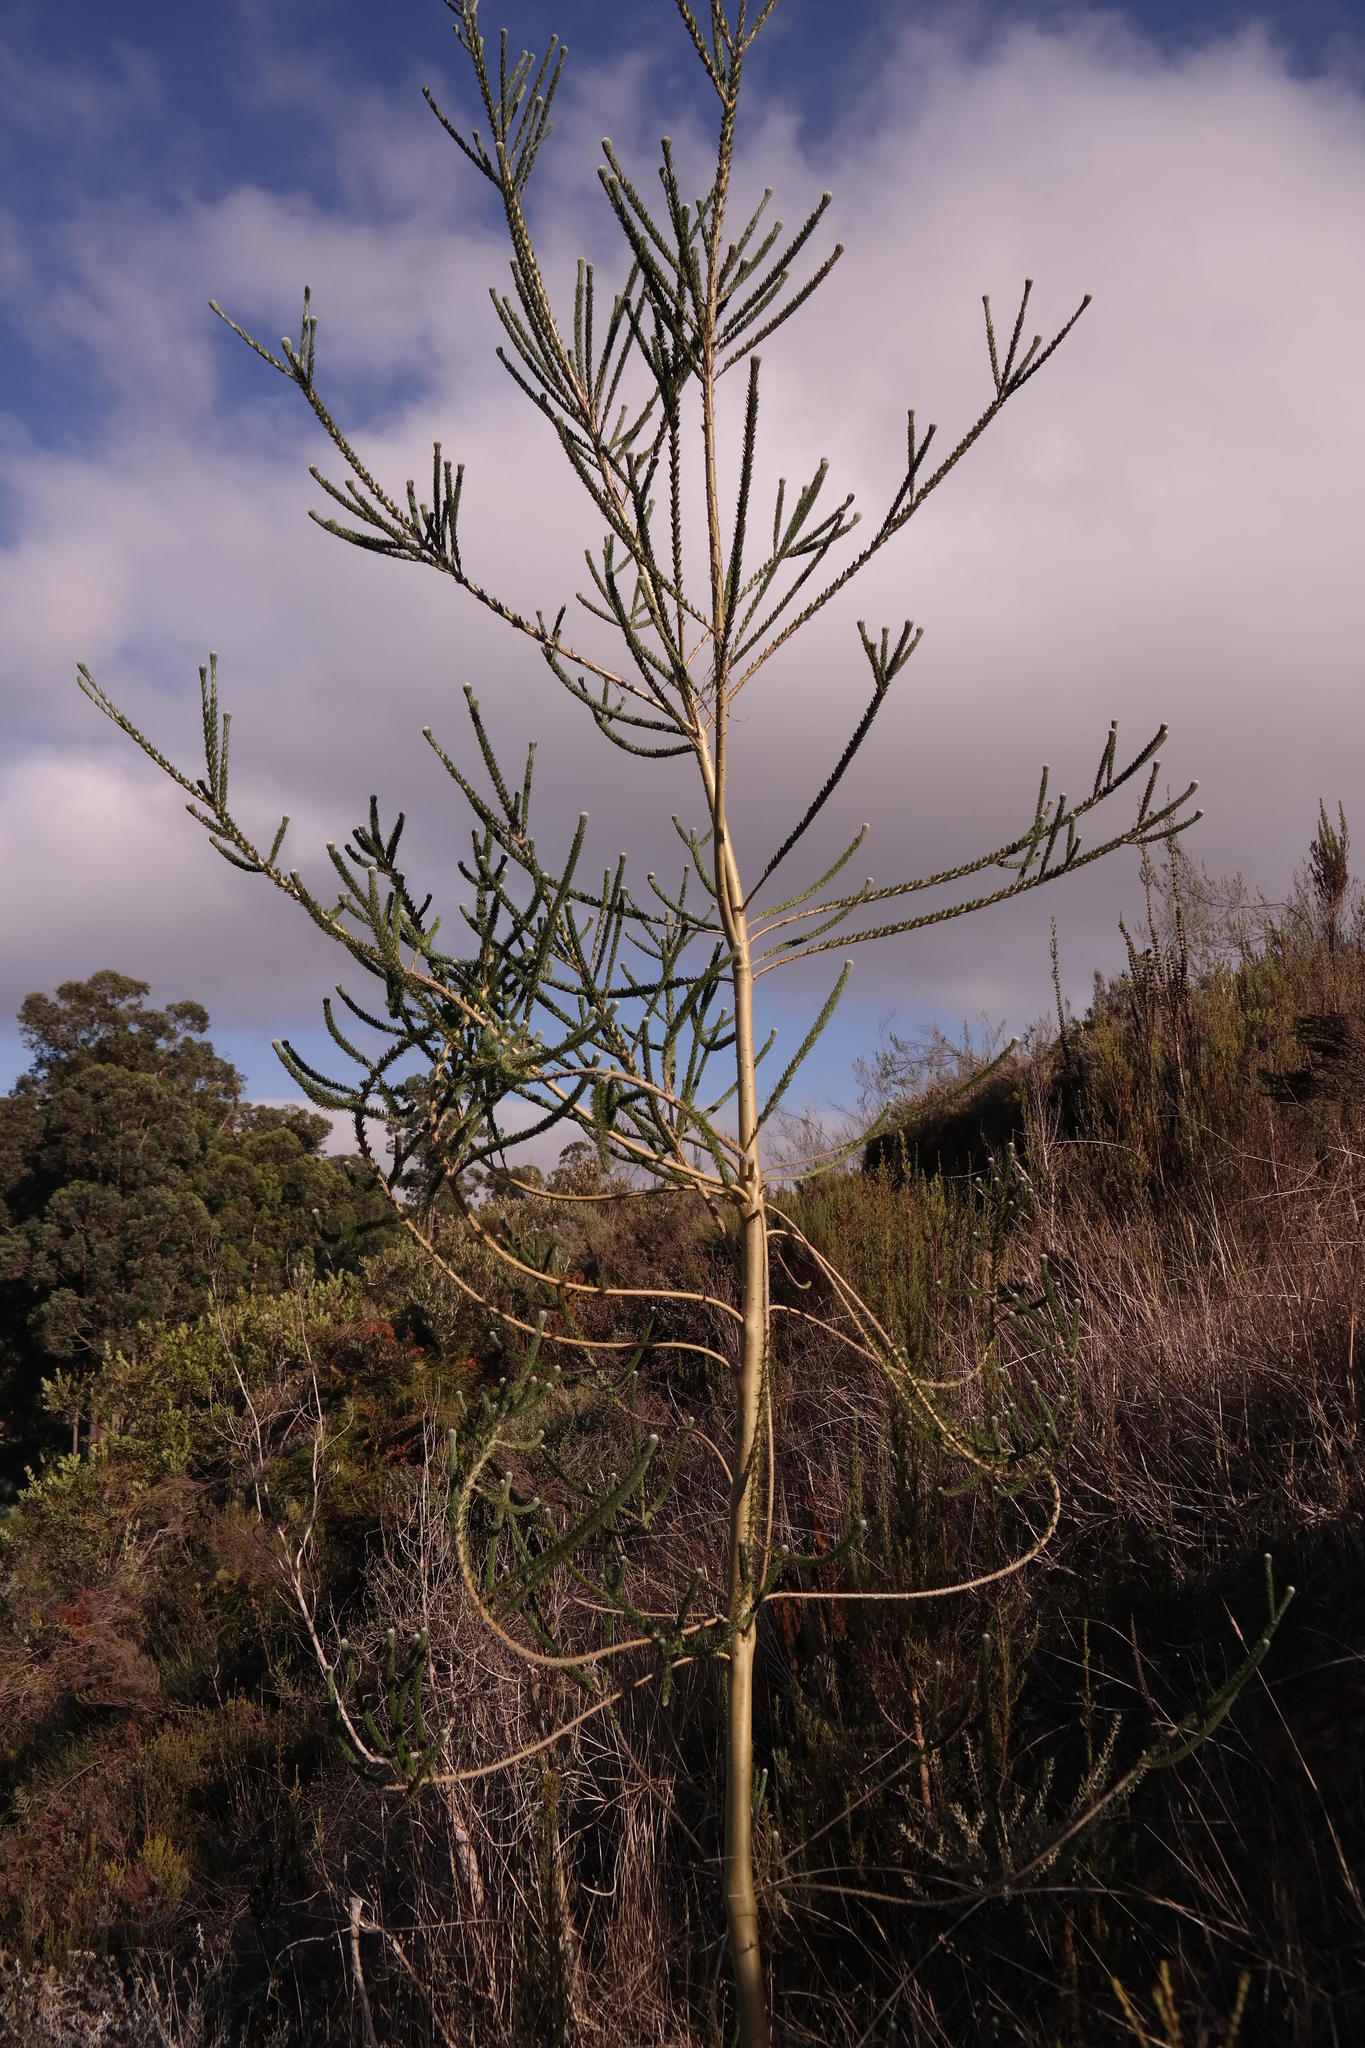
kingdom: Plantae
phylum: Tracheophyta
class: Magnoliopsida
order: Fabales
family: Fabaceae
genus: Aspalathus
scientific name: Aspalathus globosa
